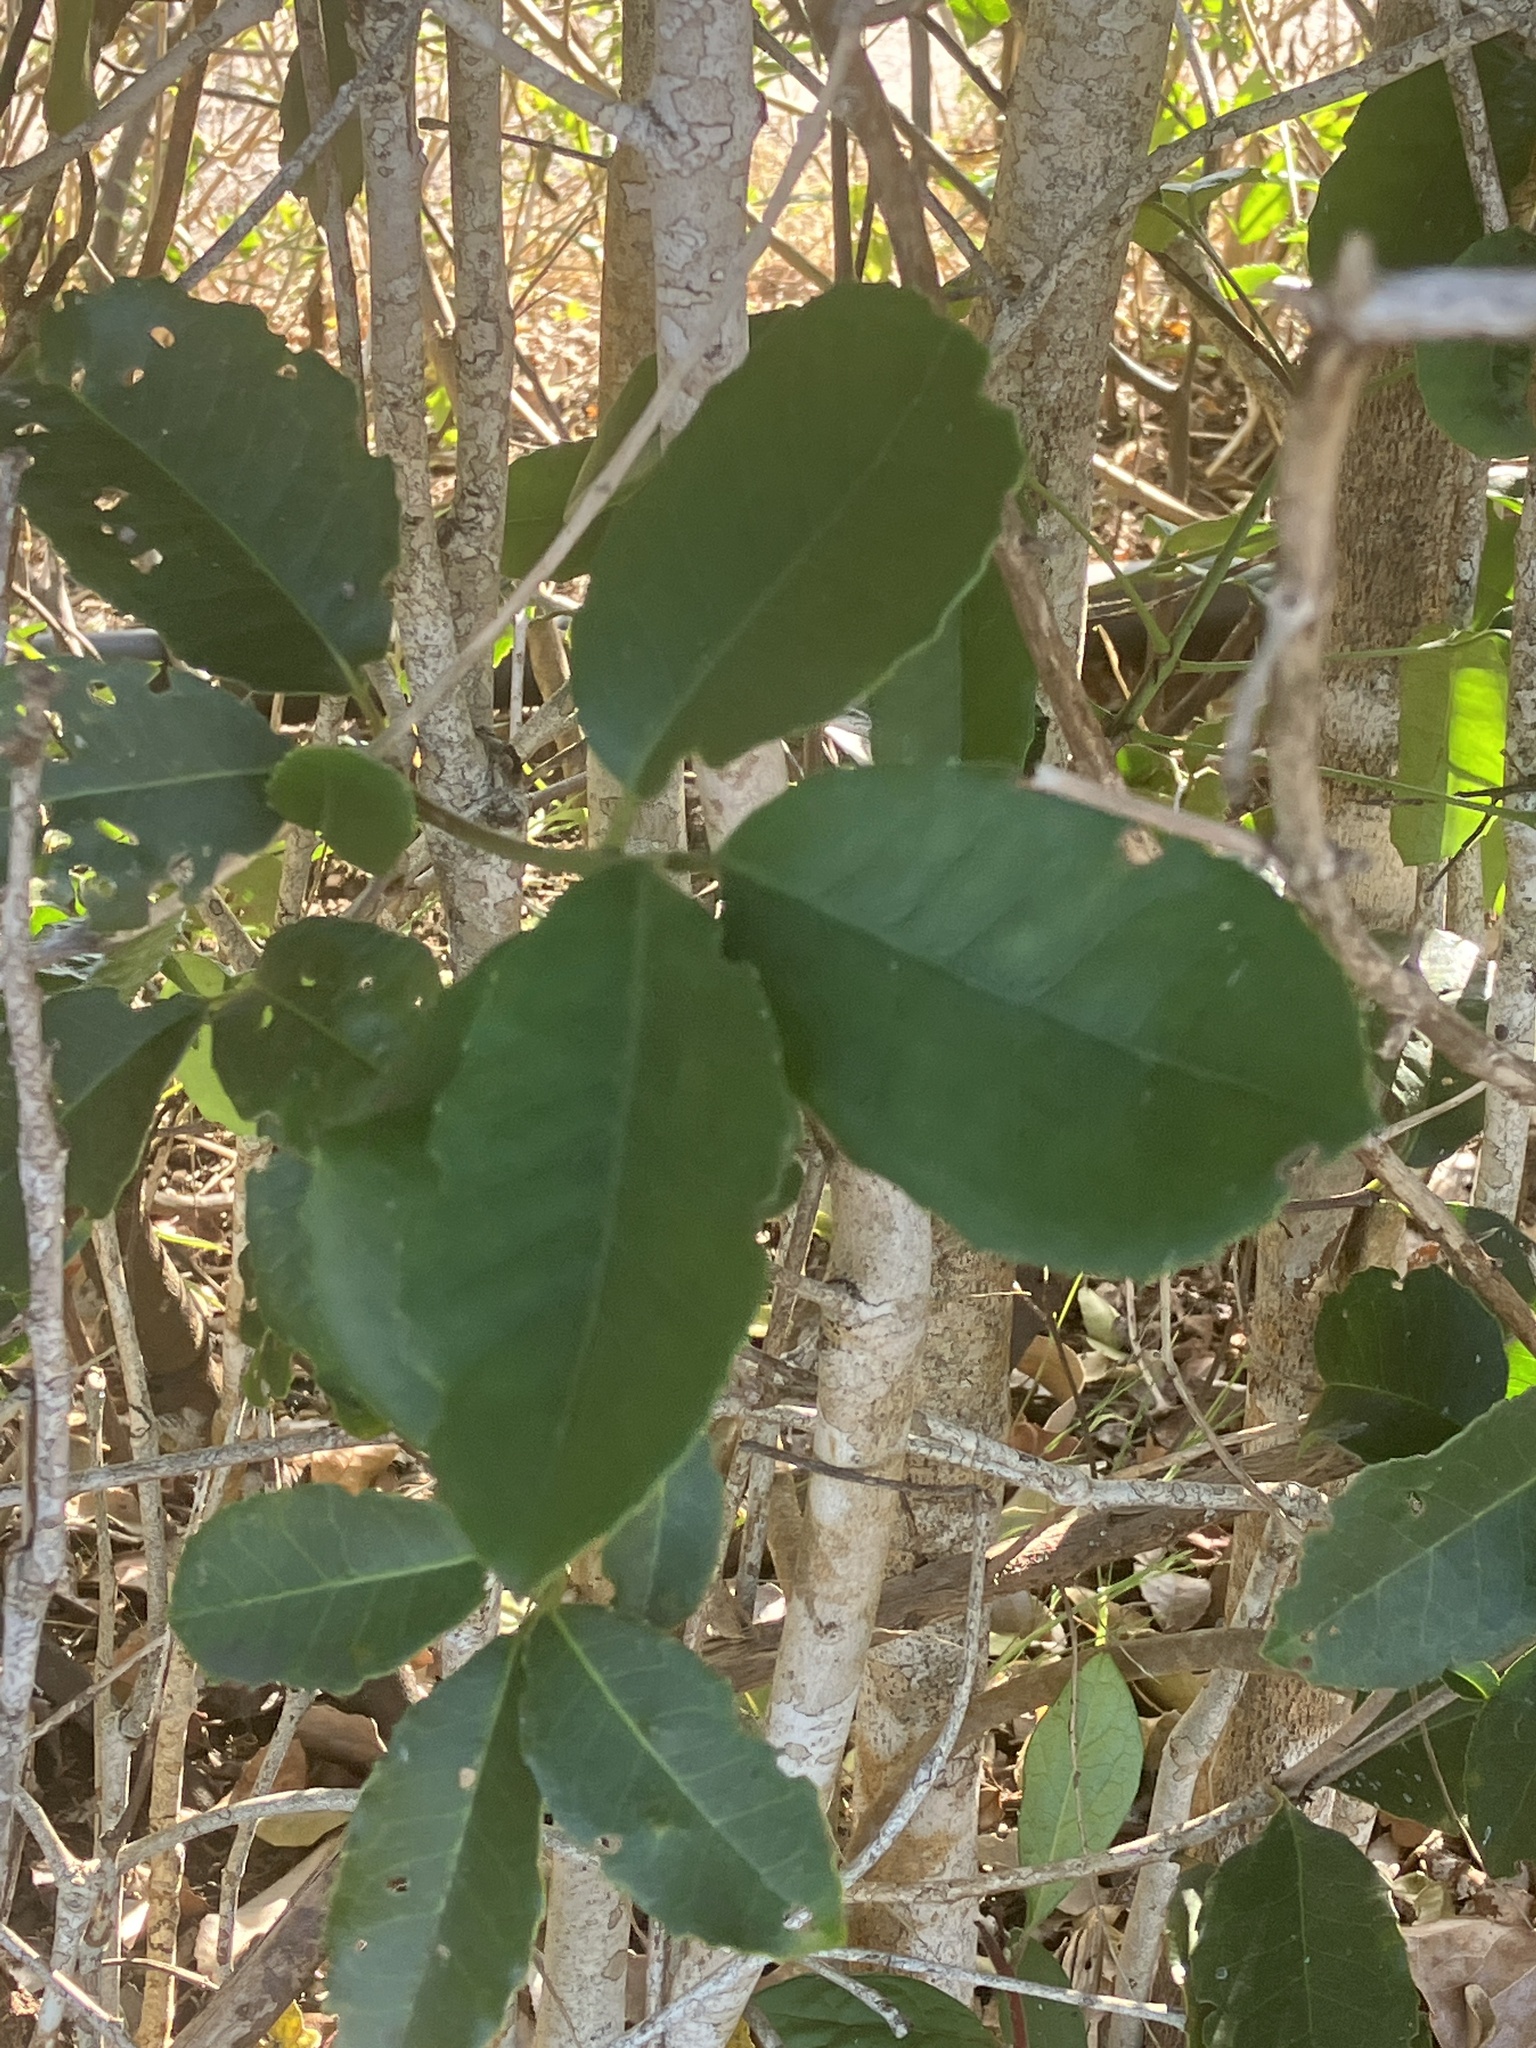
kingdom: Plantae
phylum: Tracheophyta
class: Magnoliopsida
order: Celastrales
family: Celastraceae
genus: Elaeodendron
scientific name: Elaeodendron croceum
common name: Saffron
